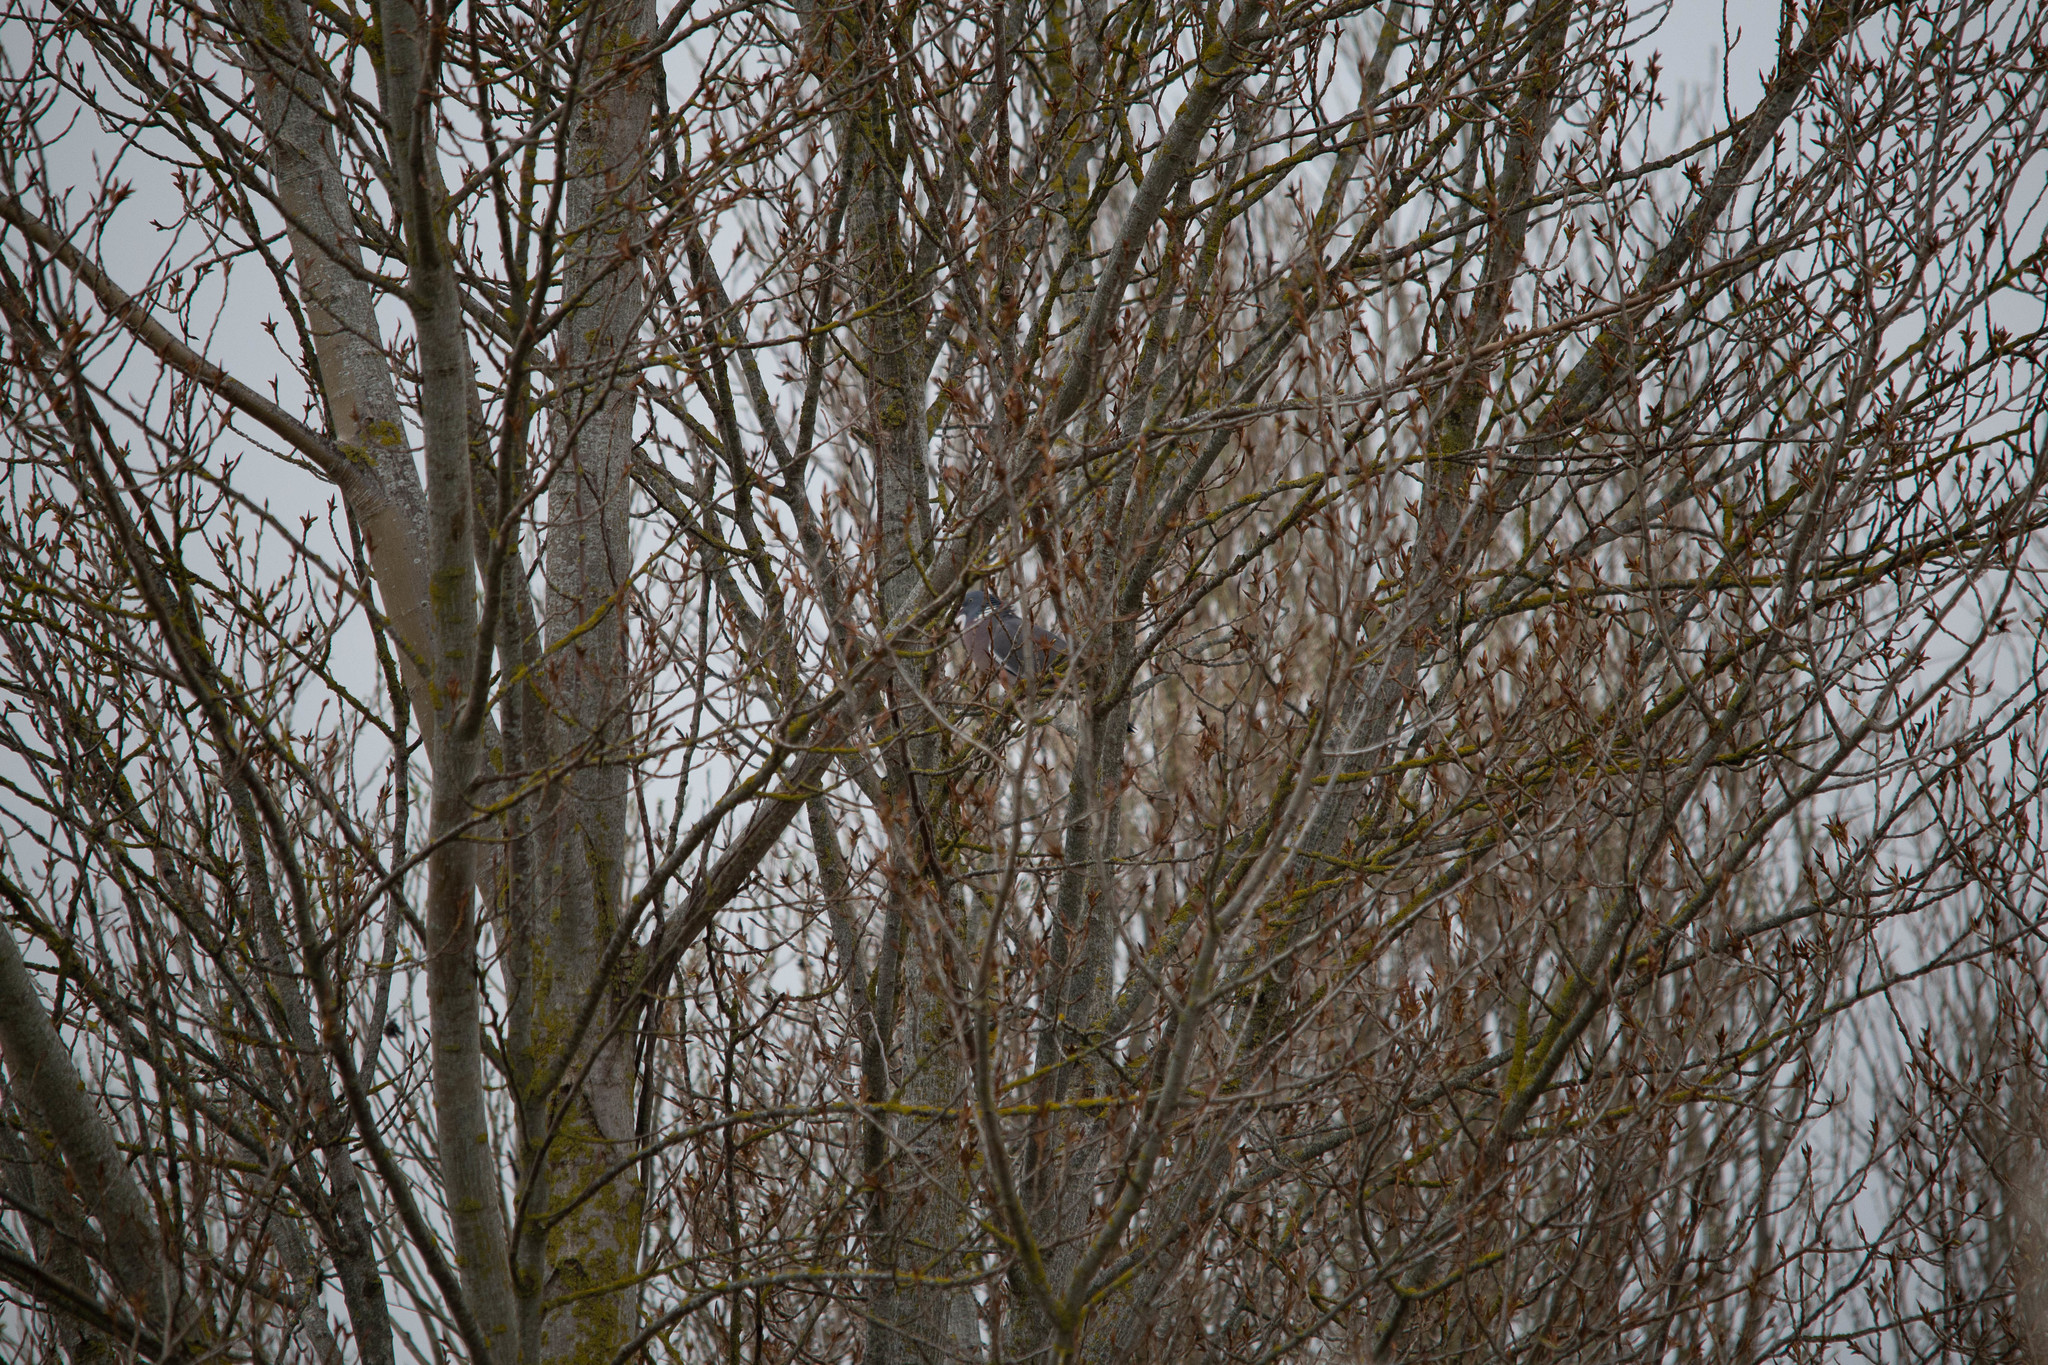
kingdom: Animalia
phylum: Chordata
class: Aves
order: Columbiformes
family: Columbidae
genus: Columba
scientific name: Columba palumbus
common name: Common wood pigeon
